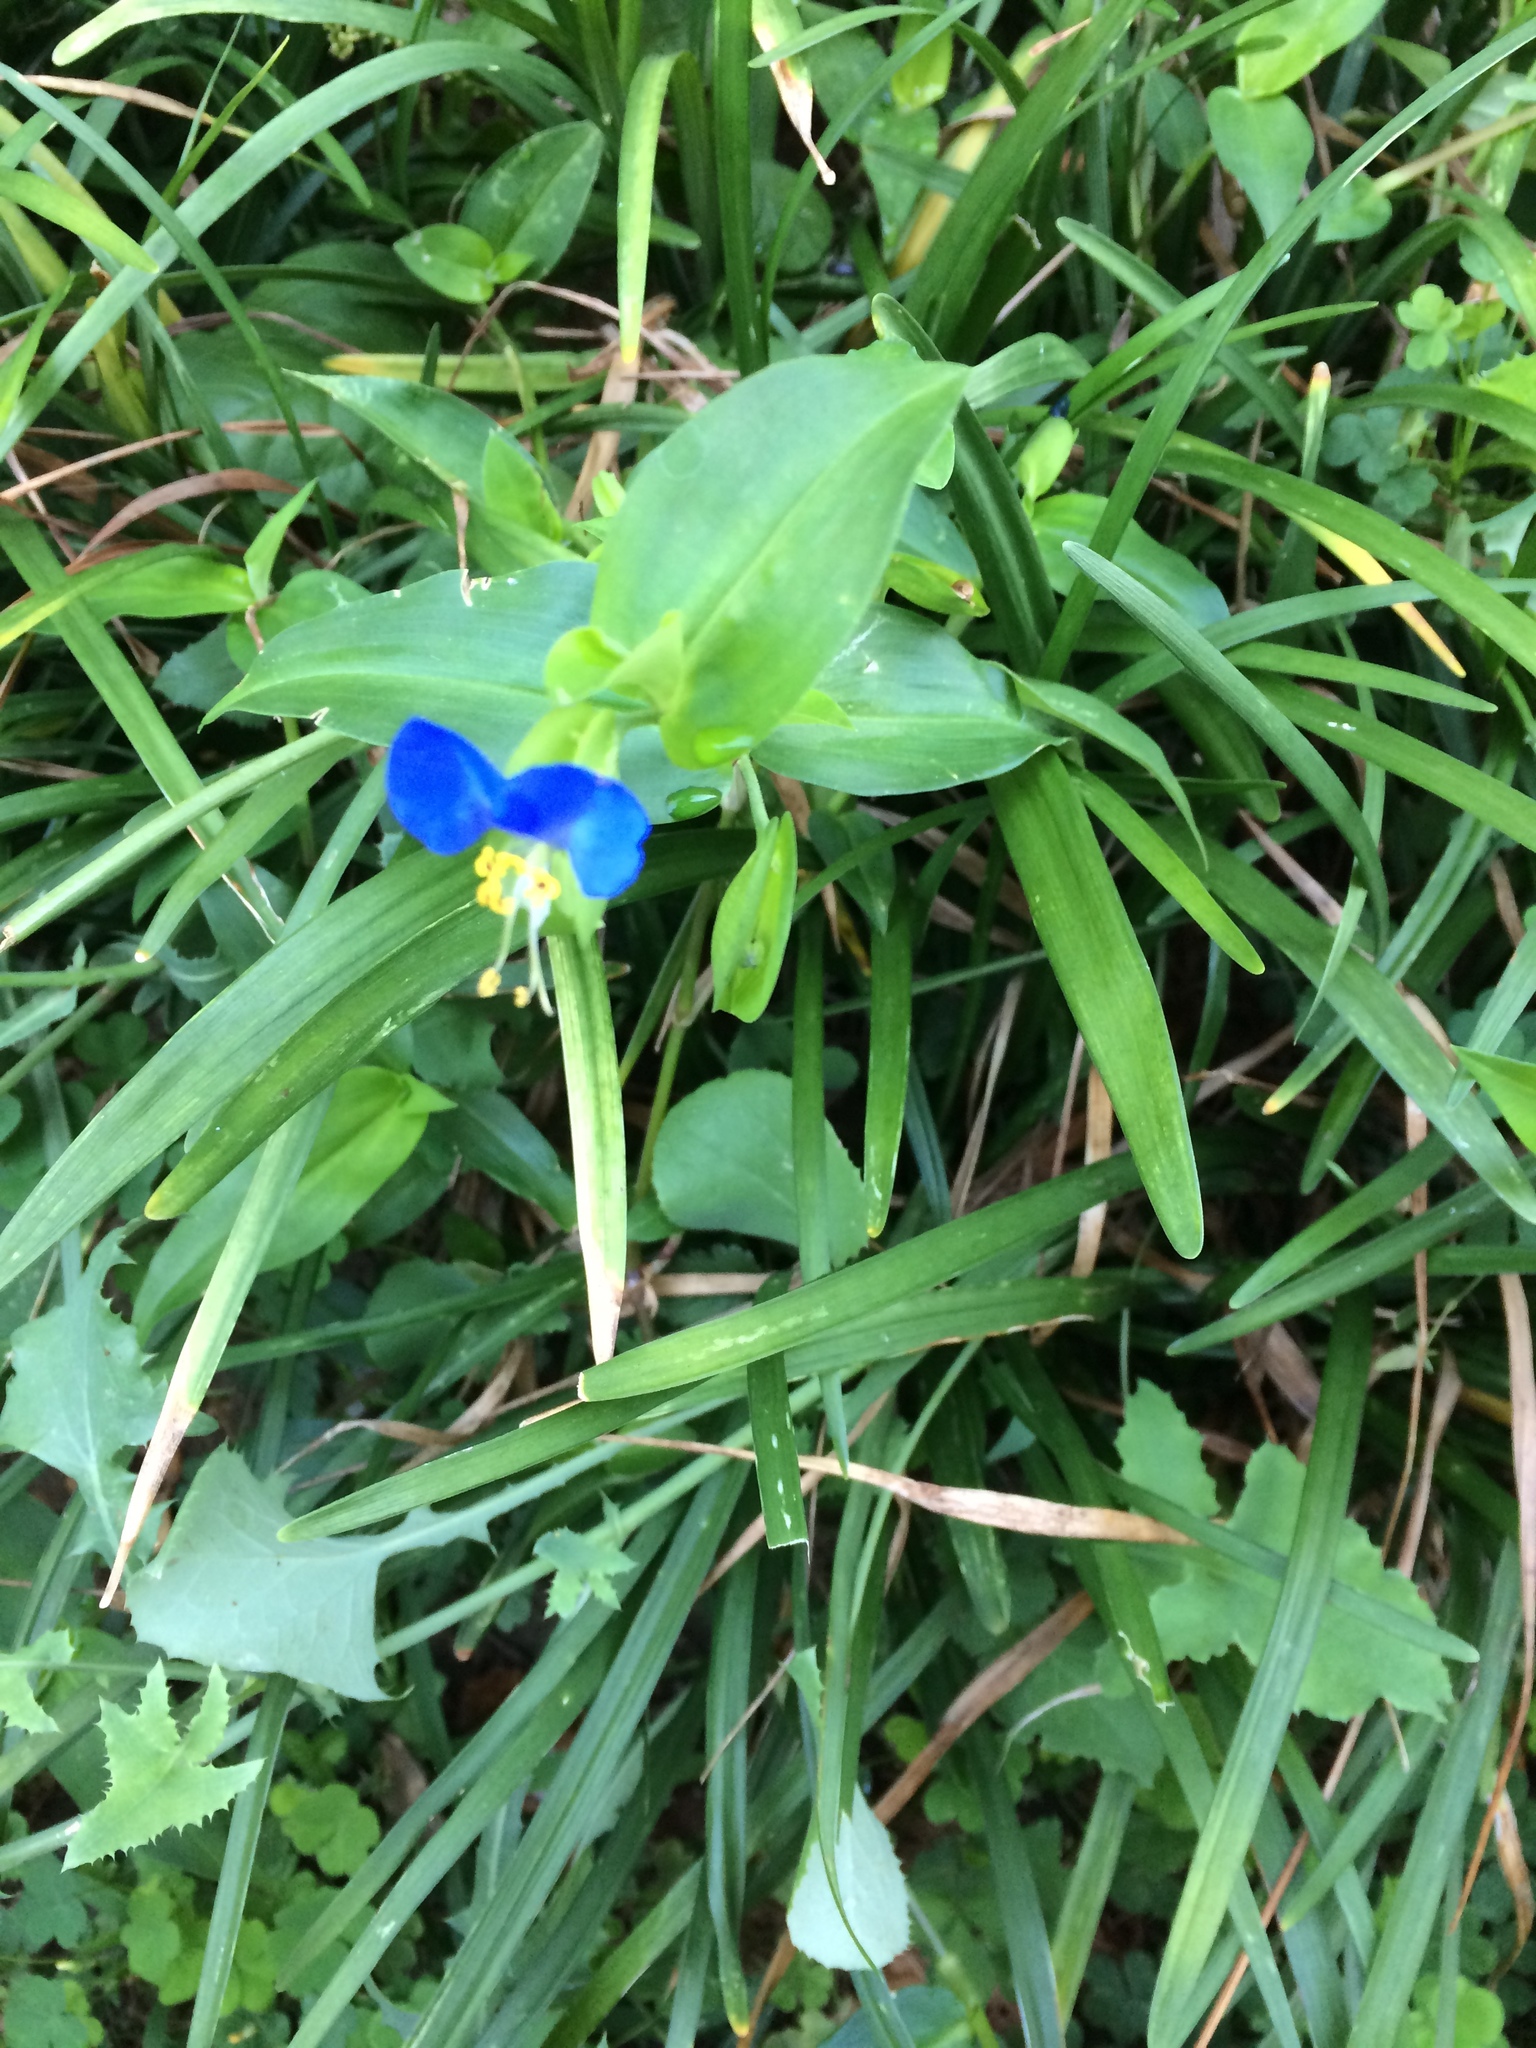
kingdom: Plantae
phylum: Tracheophyta
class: Liliopsida
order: Commelinales
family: Commelinaceae
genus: Commelina
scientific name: Commelina communis
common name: Asiatic dayflower
